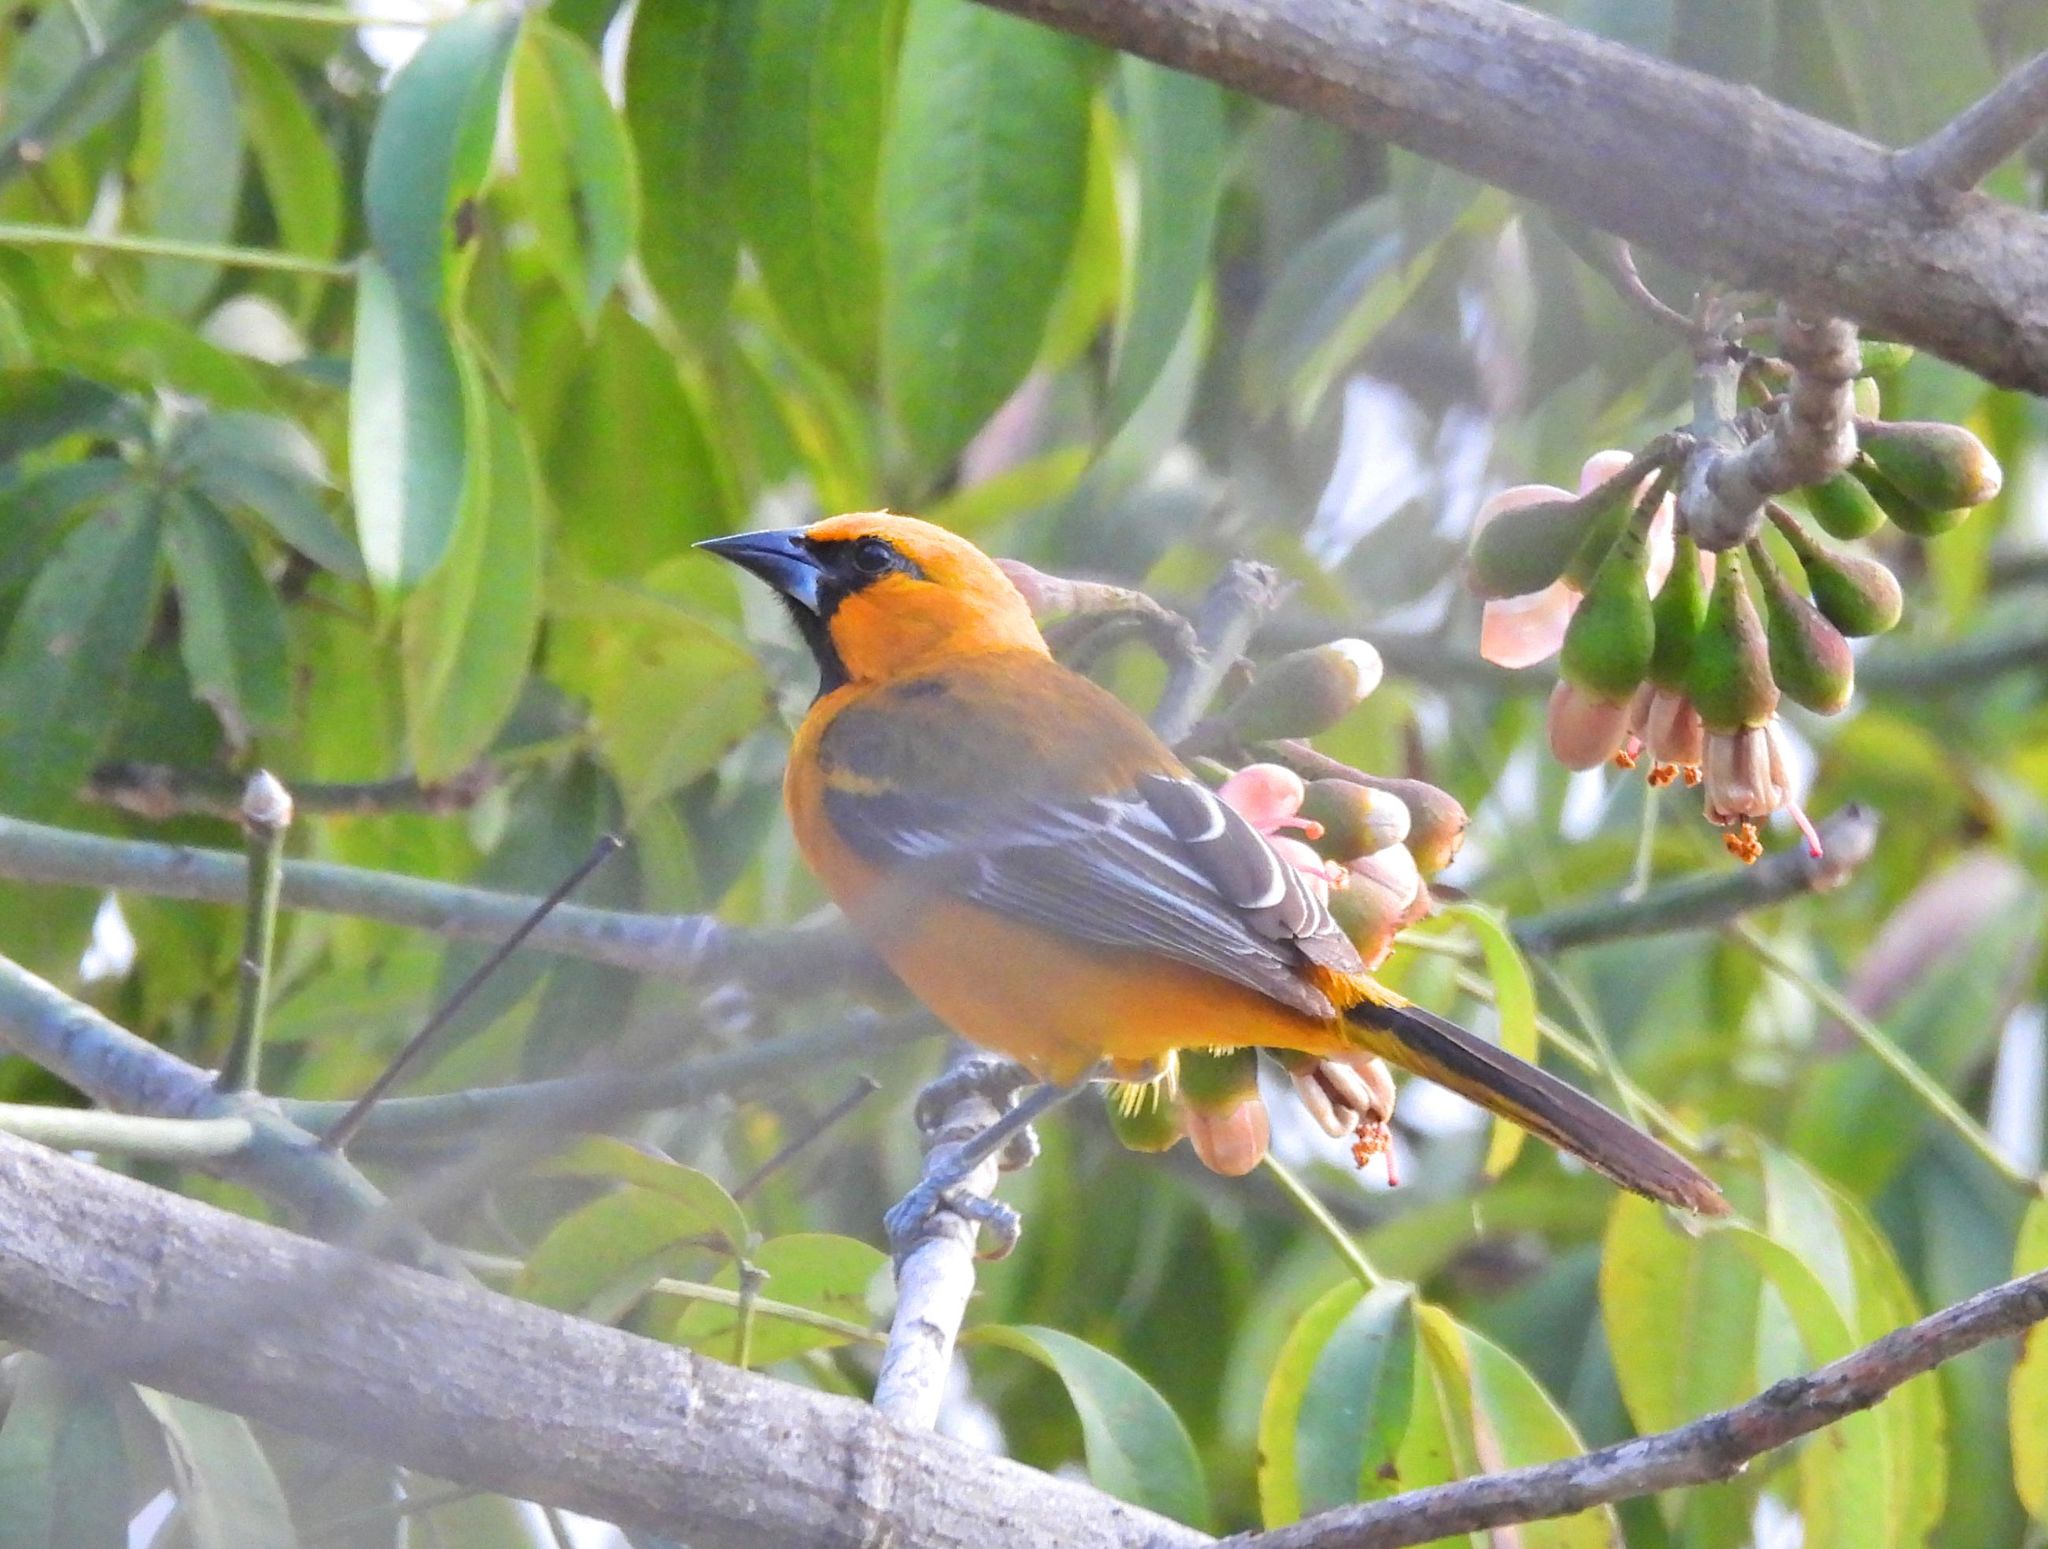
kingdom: Animalia
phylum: Chordata
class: Aves
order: Passeriformes
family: Icteridae
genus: Icterus
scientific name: Icterus gularis
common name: Altamira oriole
